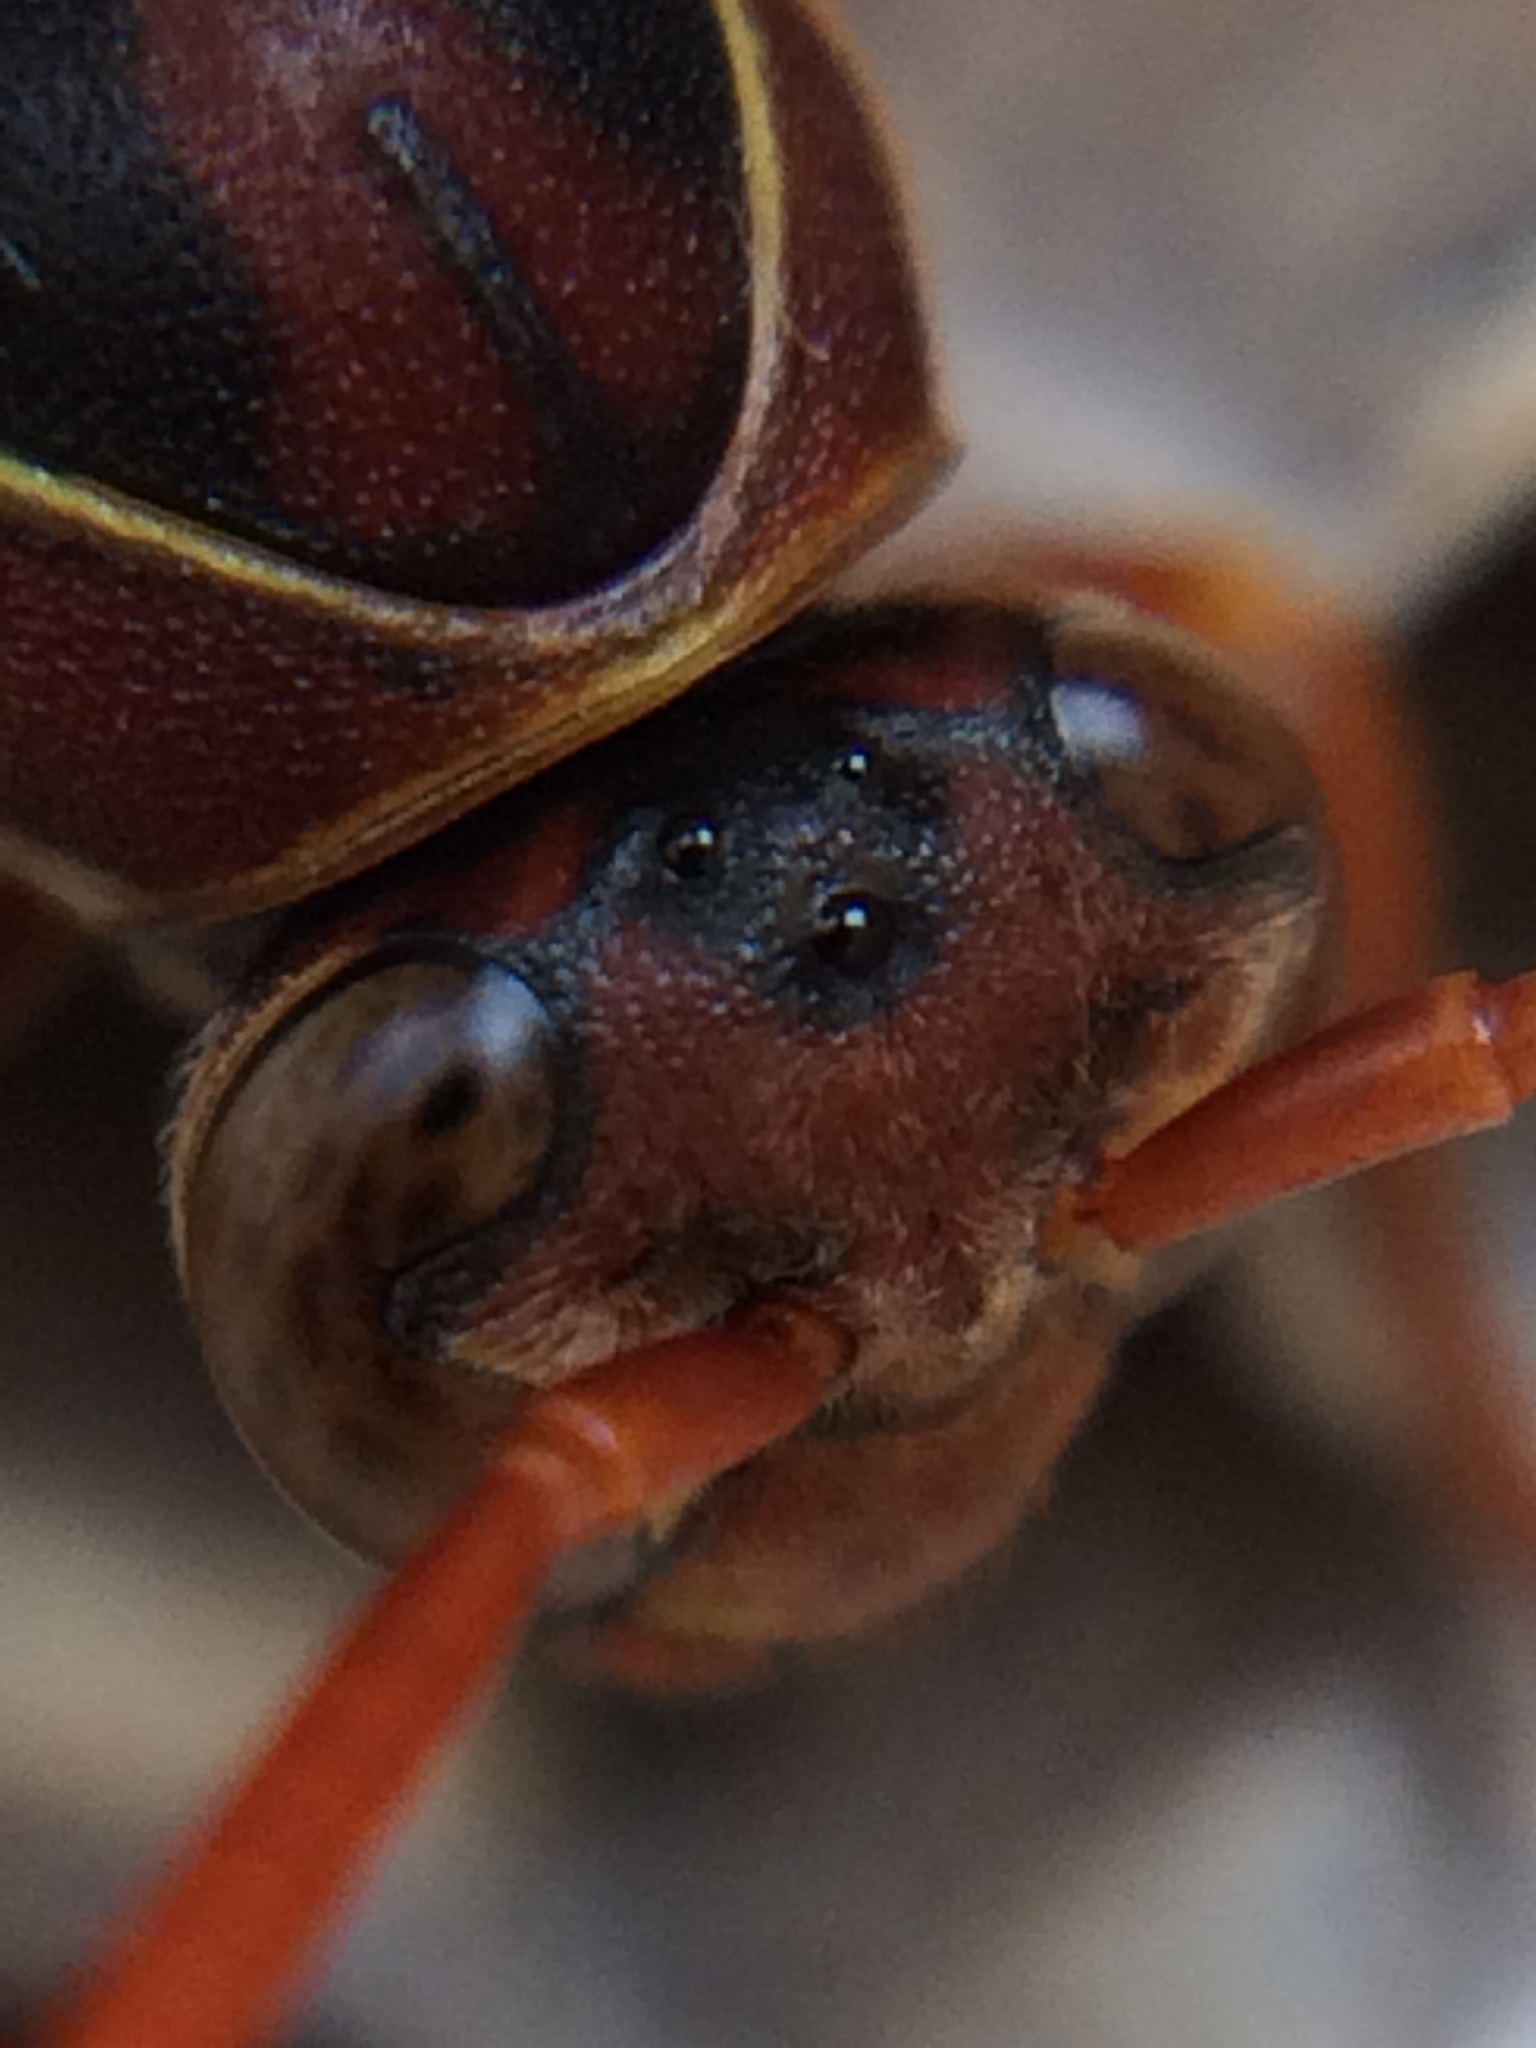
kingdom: Animalia
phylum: Arthropoda
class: Insecta
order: Hymenoptera
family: Eumenidae
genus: Polistes
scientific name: Polistes humilis
